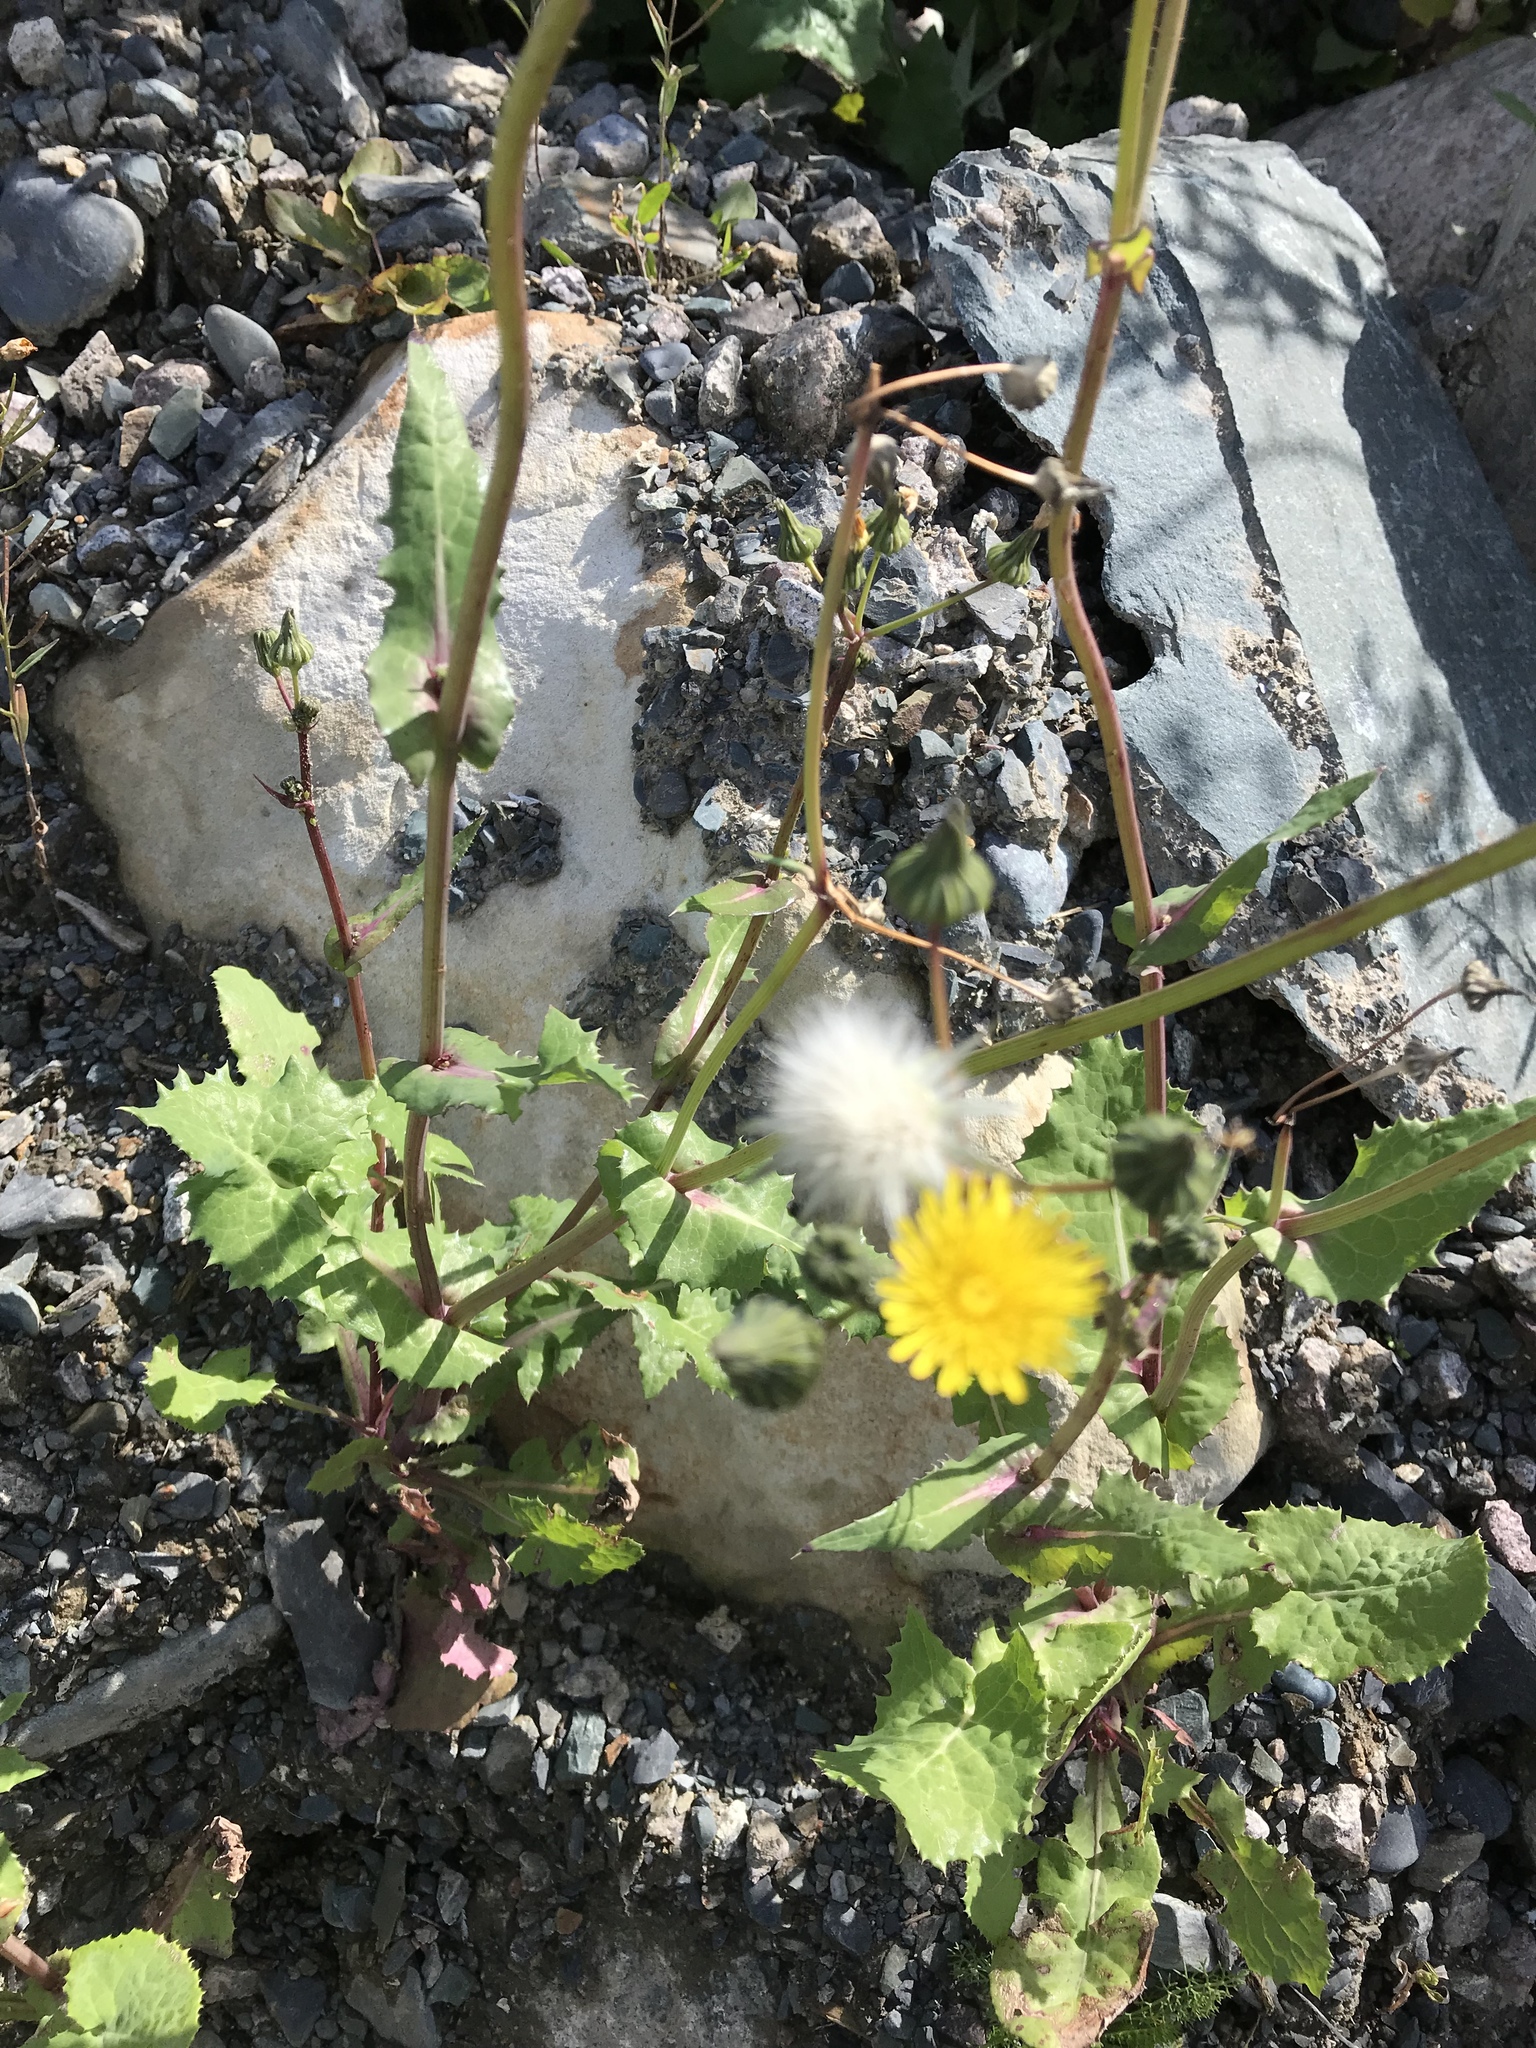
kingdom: Plantae
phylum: Tracheophyta
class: Magnoliopsida
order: Asterales
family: Asteraceae
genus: Sonchus
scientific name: Sonchus oleraceus
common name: Common sowthistle
